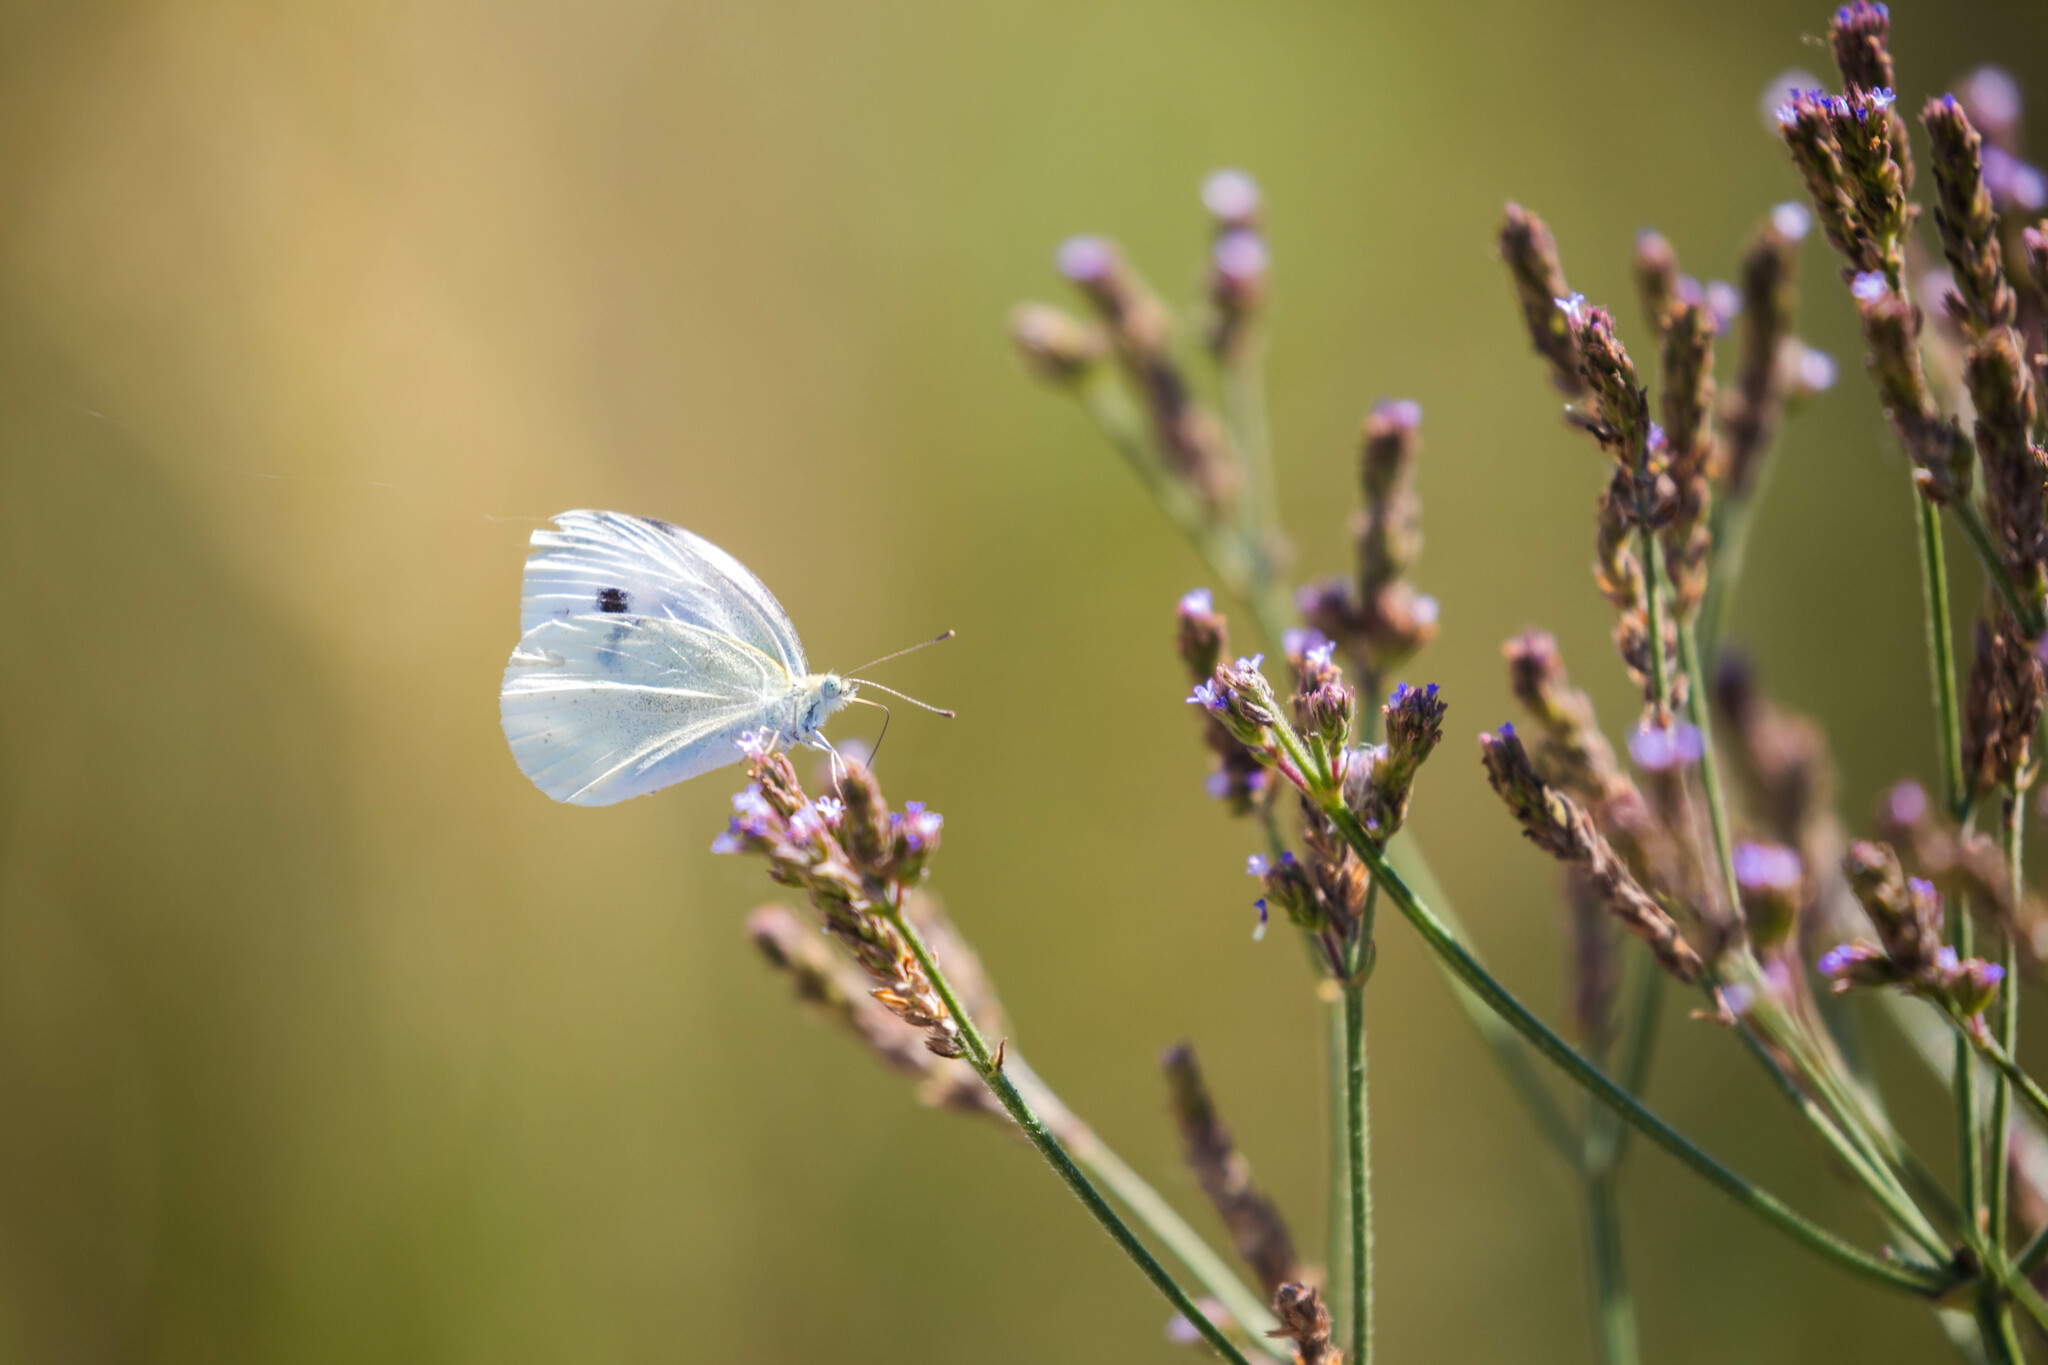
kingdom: Animalia
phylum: Arthropoda
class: Insecta
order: Lepidoptera
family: Pieridae
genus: Pieris
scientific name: Pieris rapae
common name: Small white
